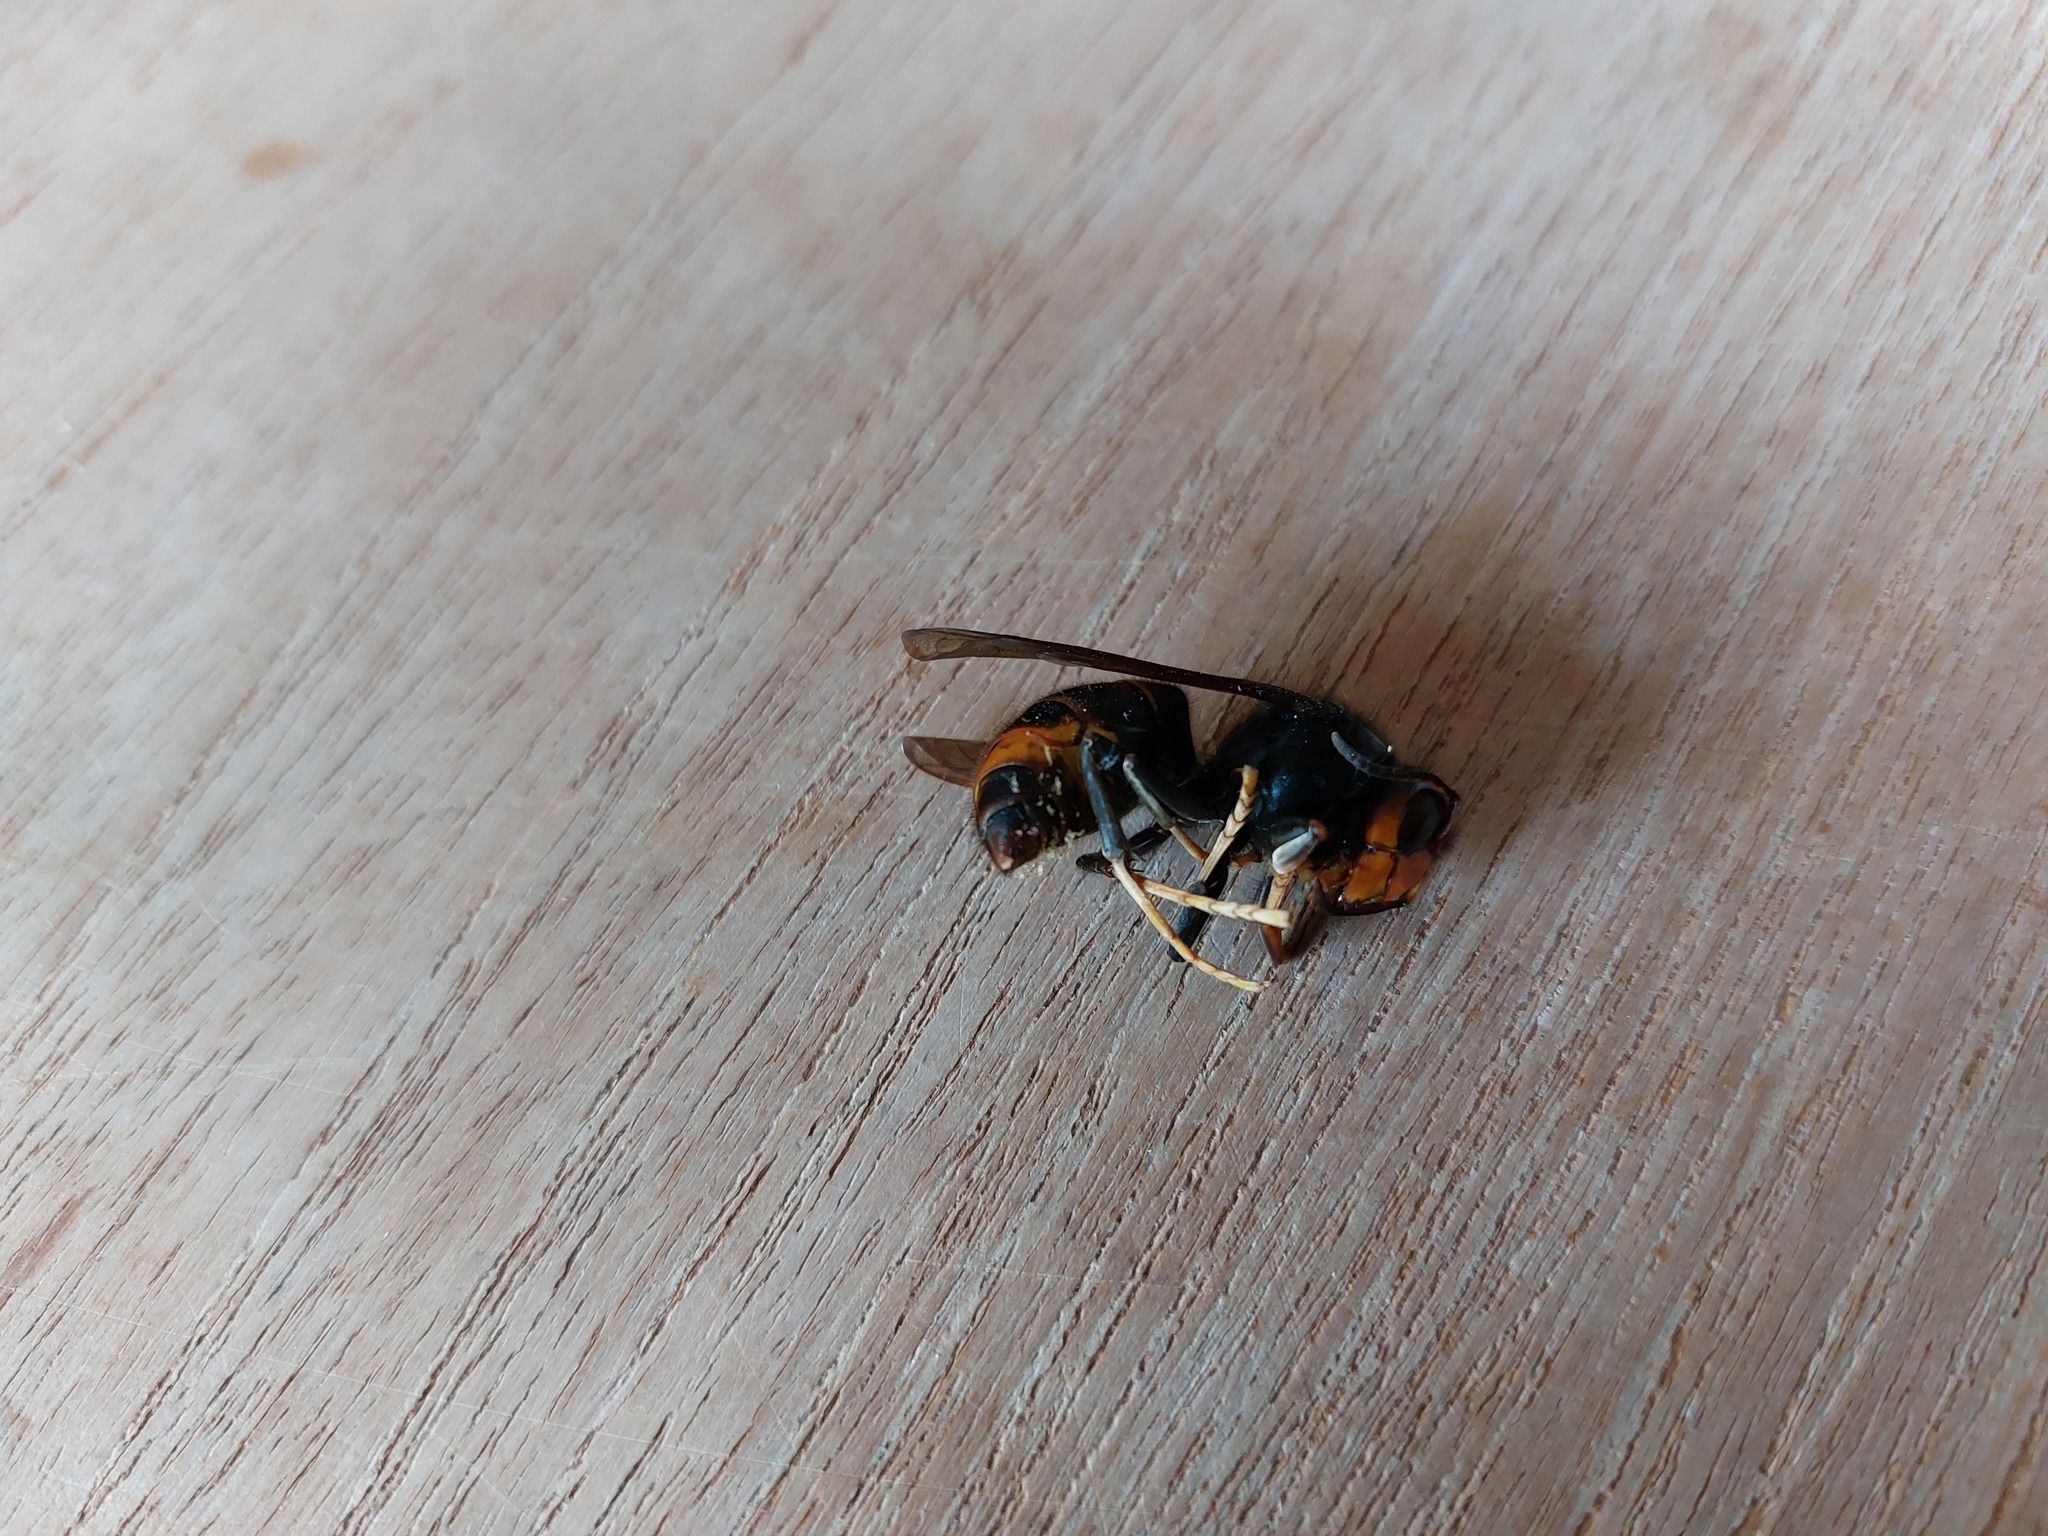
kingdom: Animalia
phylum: Arthropoda
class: Insecta
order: Hymenoptera
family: Vespidae
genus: Vespa
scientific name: Vespa velutina
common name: Asian hornet
